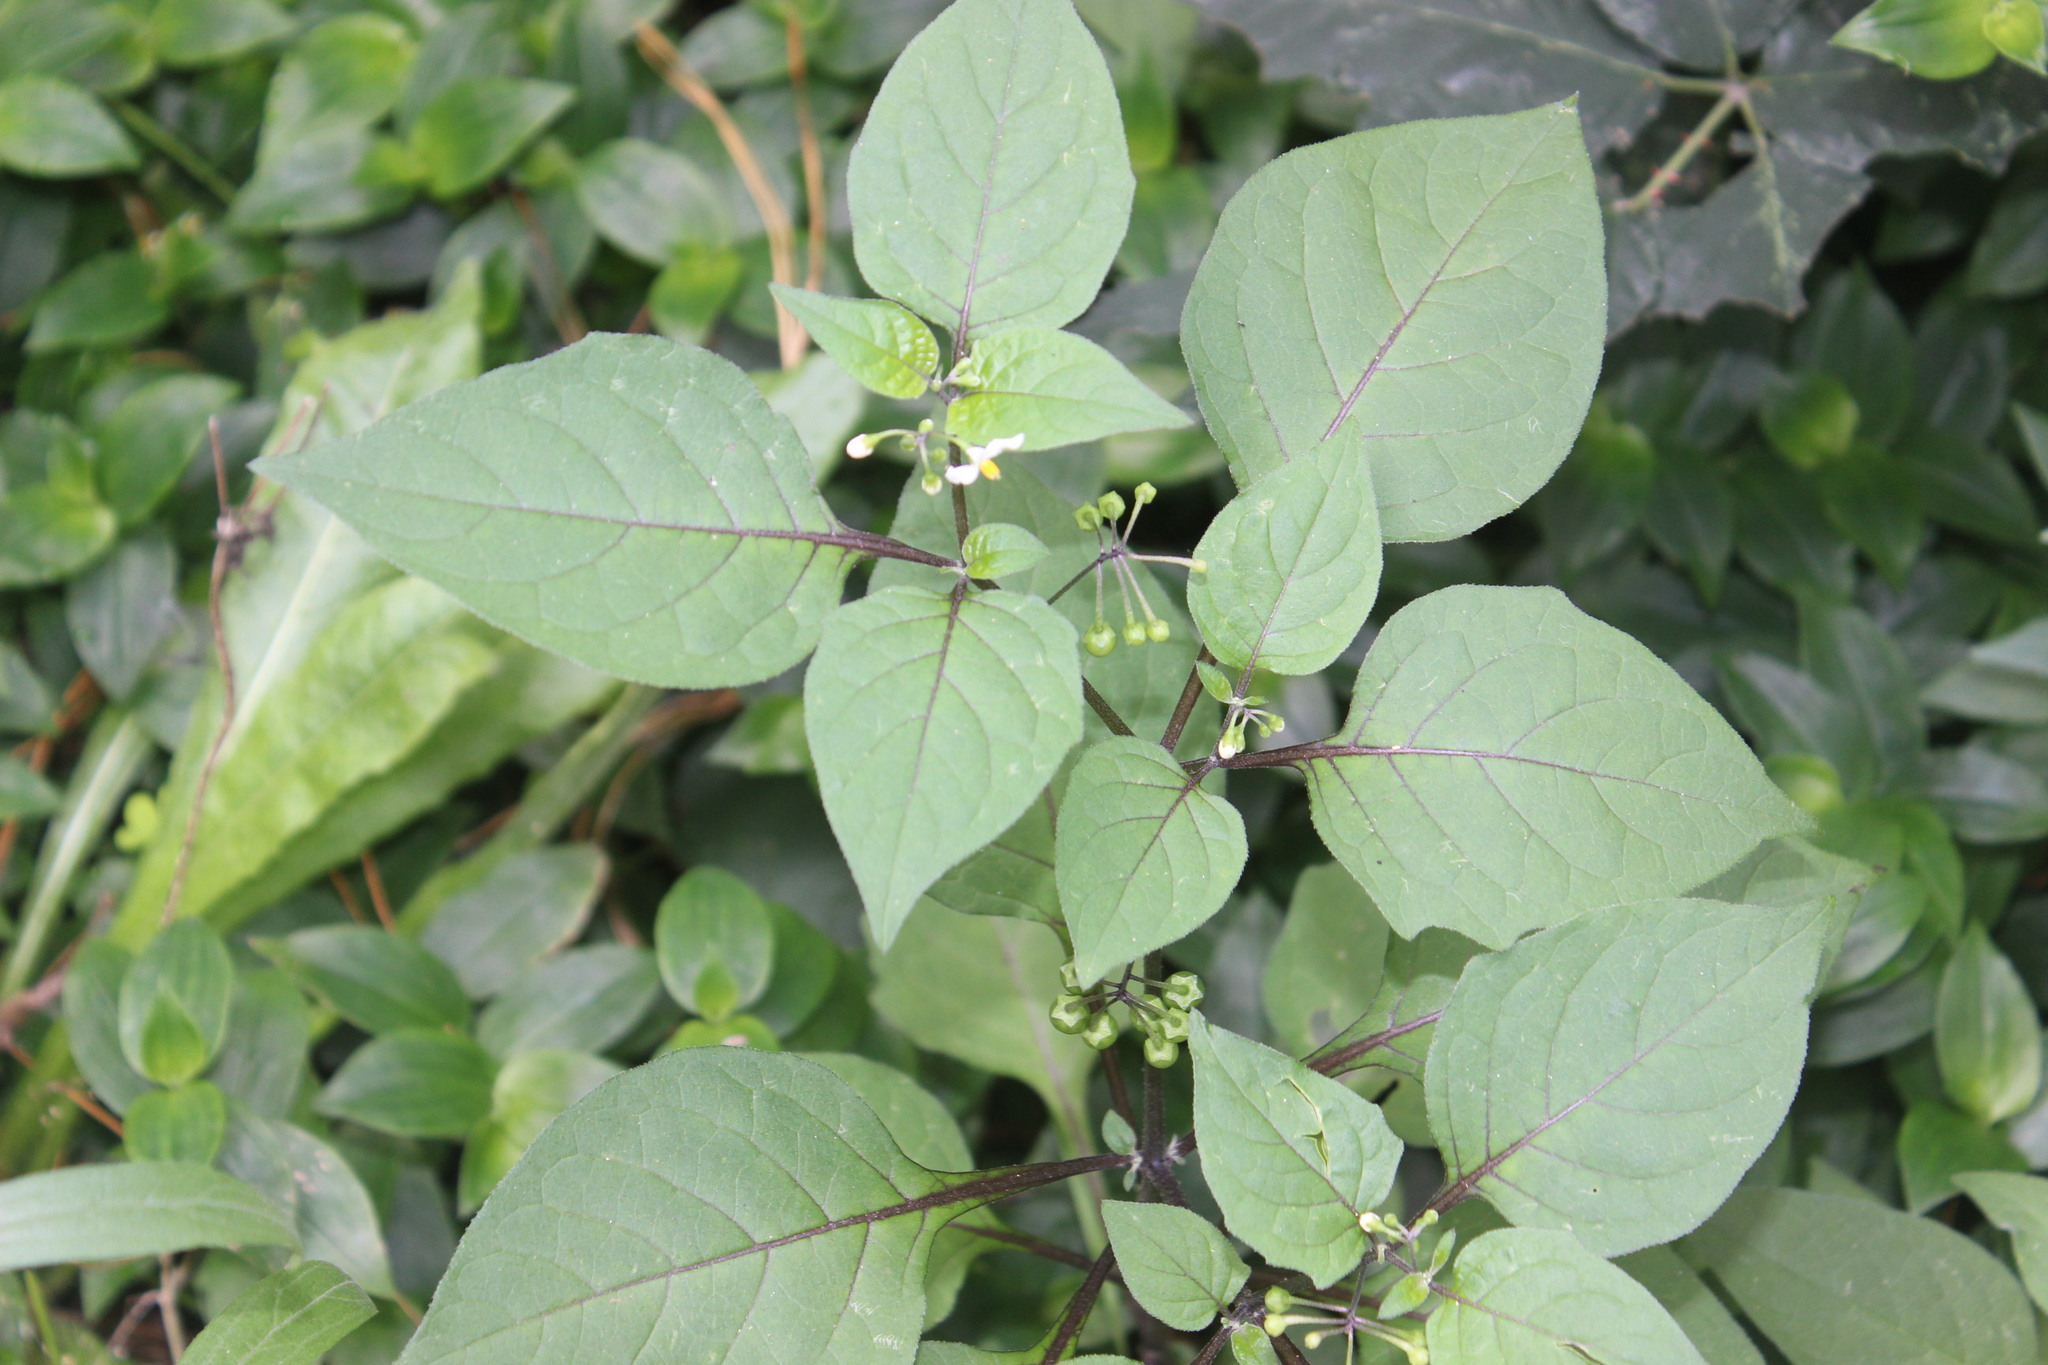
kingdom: Plantae
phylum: Tracheophyta
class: Magnoliopsida
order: Solanales
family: Solanaceae
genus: Solanum
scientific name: Solanum nigrum
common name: Black nightshade
